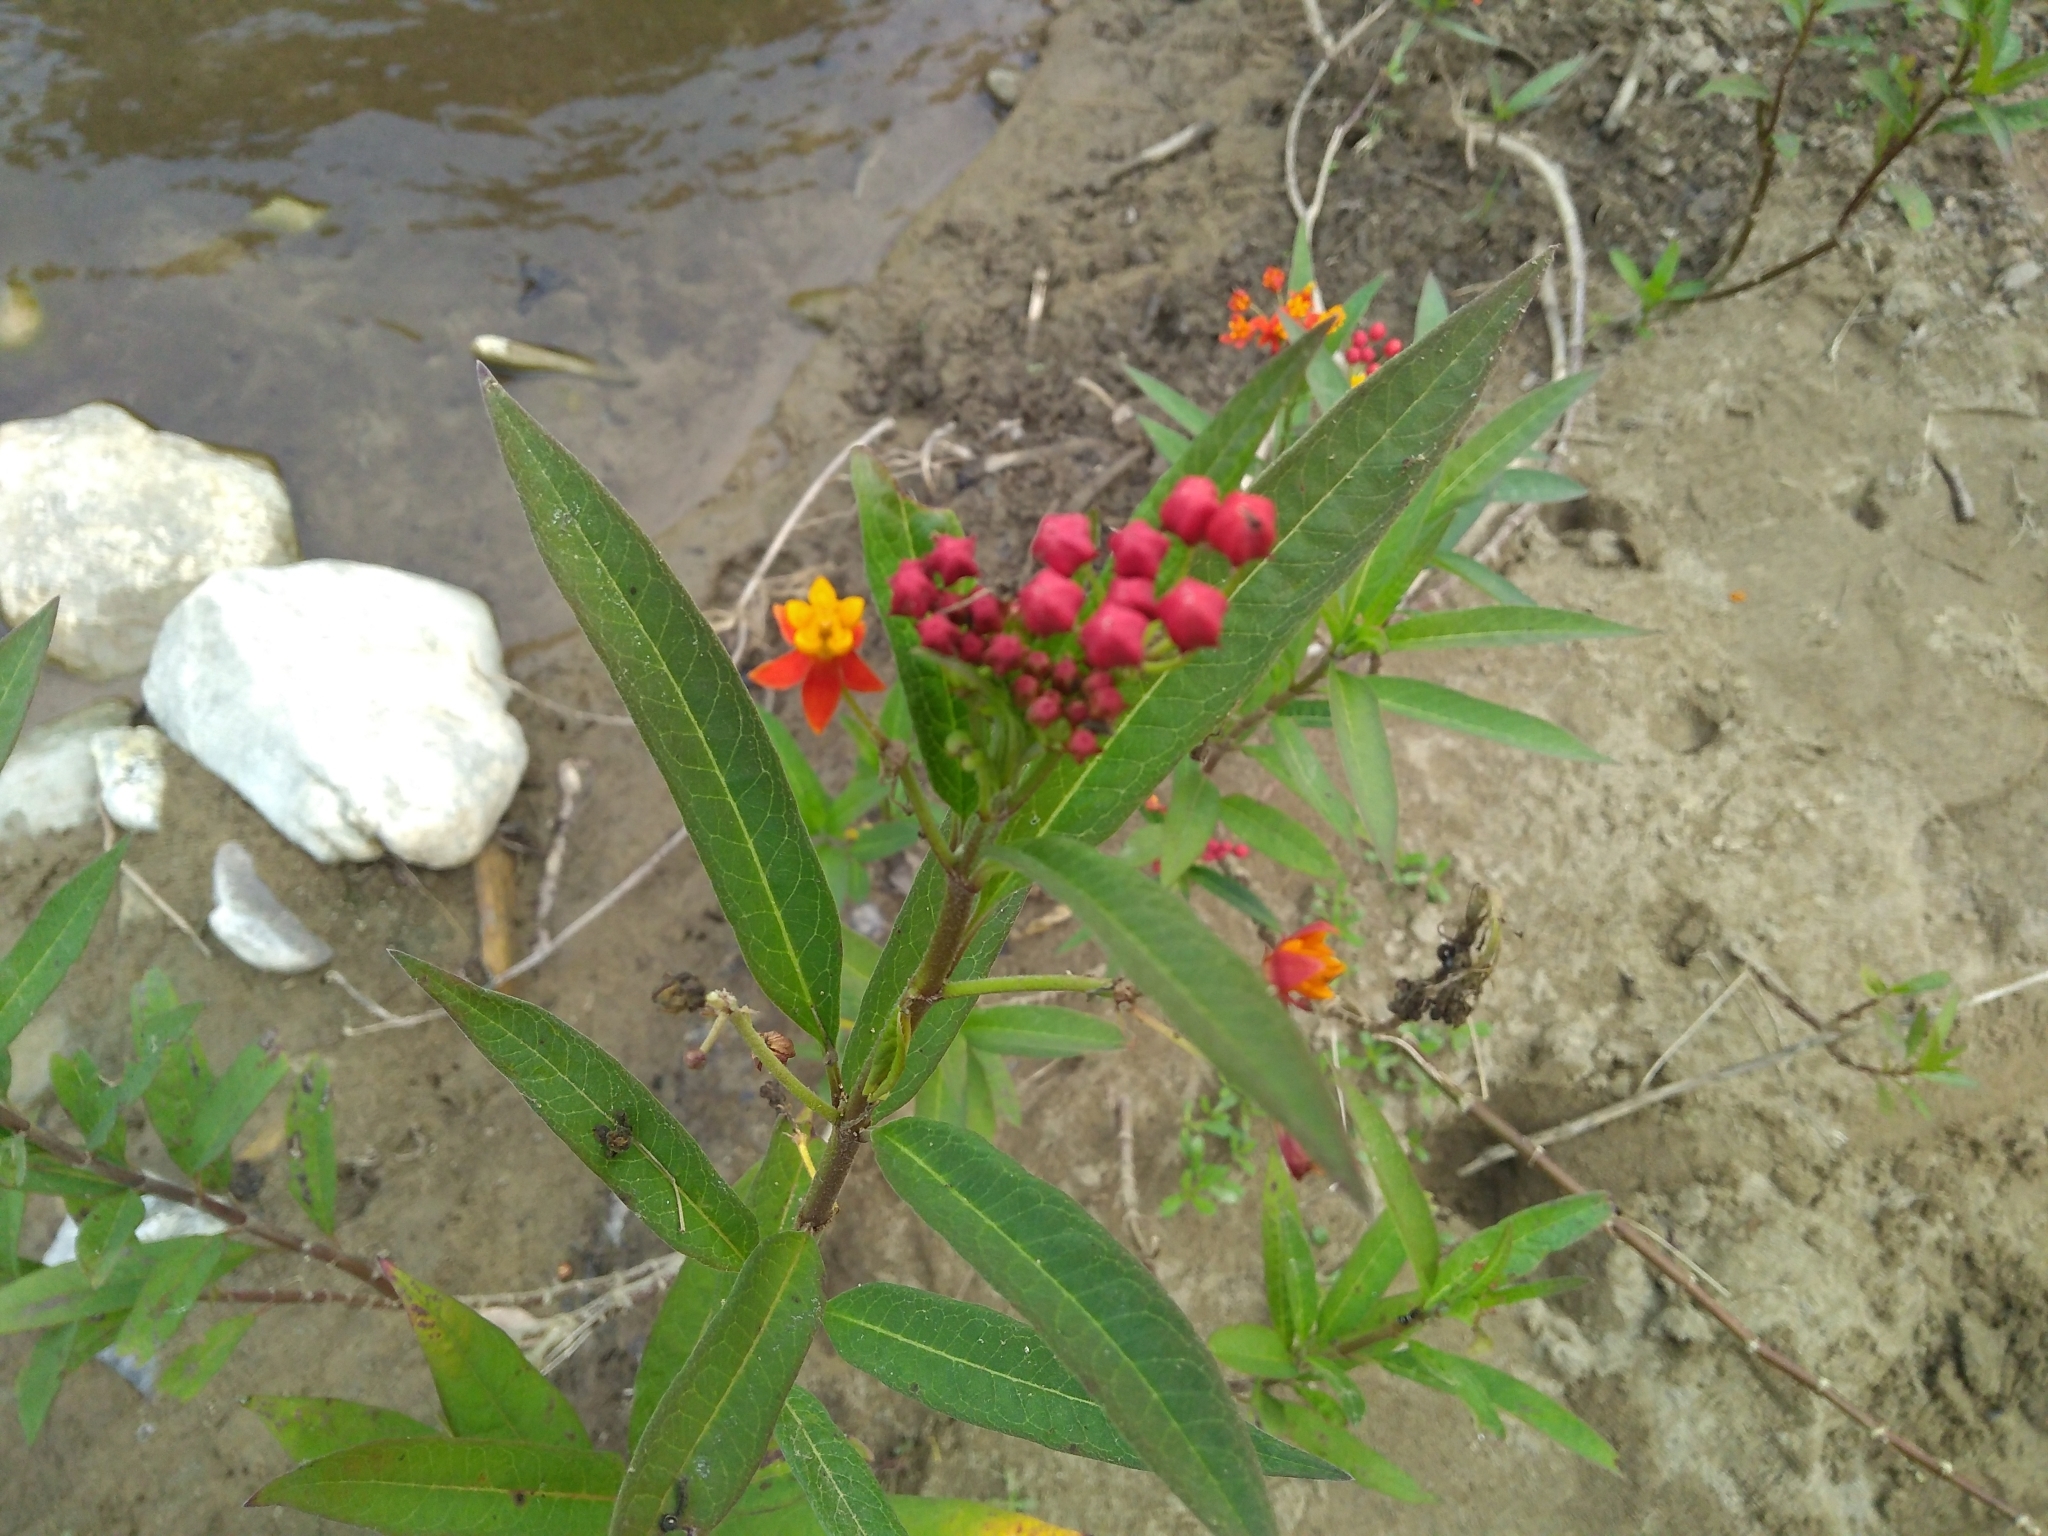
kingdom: Plantae
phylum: Tracheophyta
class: Magnoliopsida
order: Gentianales
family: Apocynaceae
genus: Asclepias
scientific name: Asclepias curassavica
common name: Bloodflower
